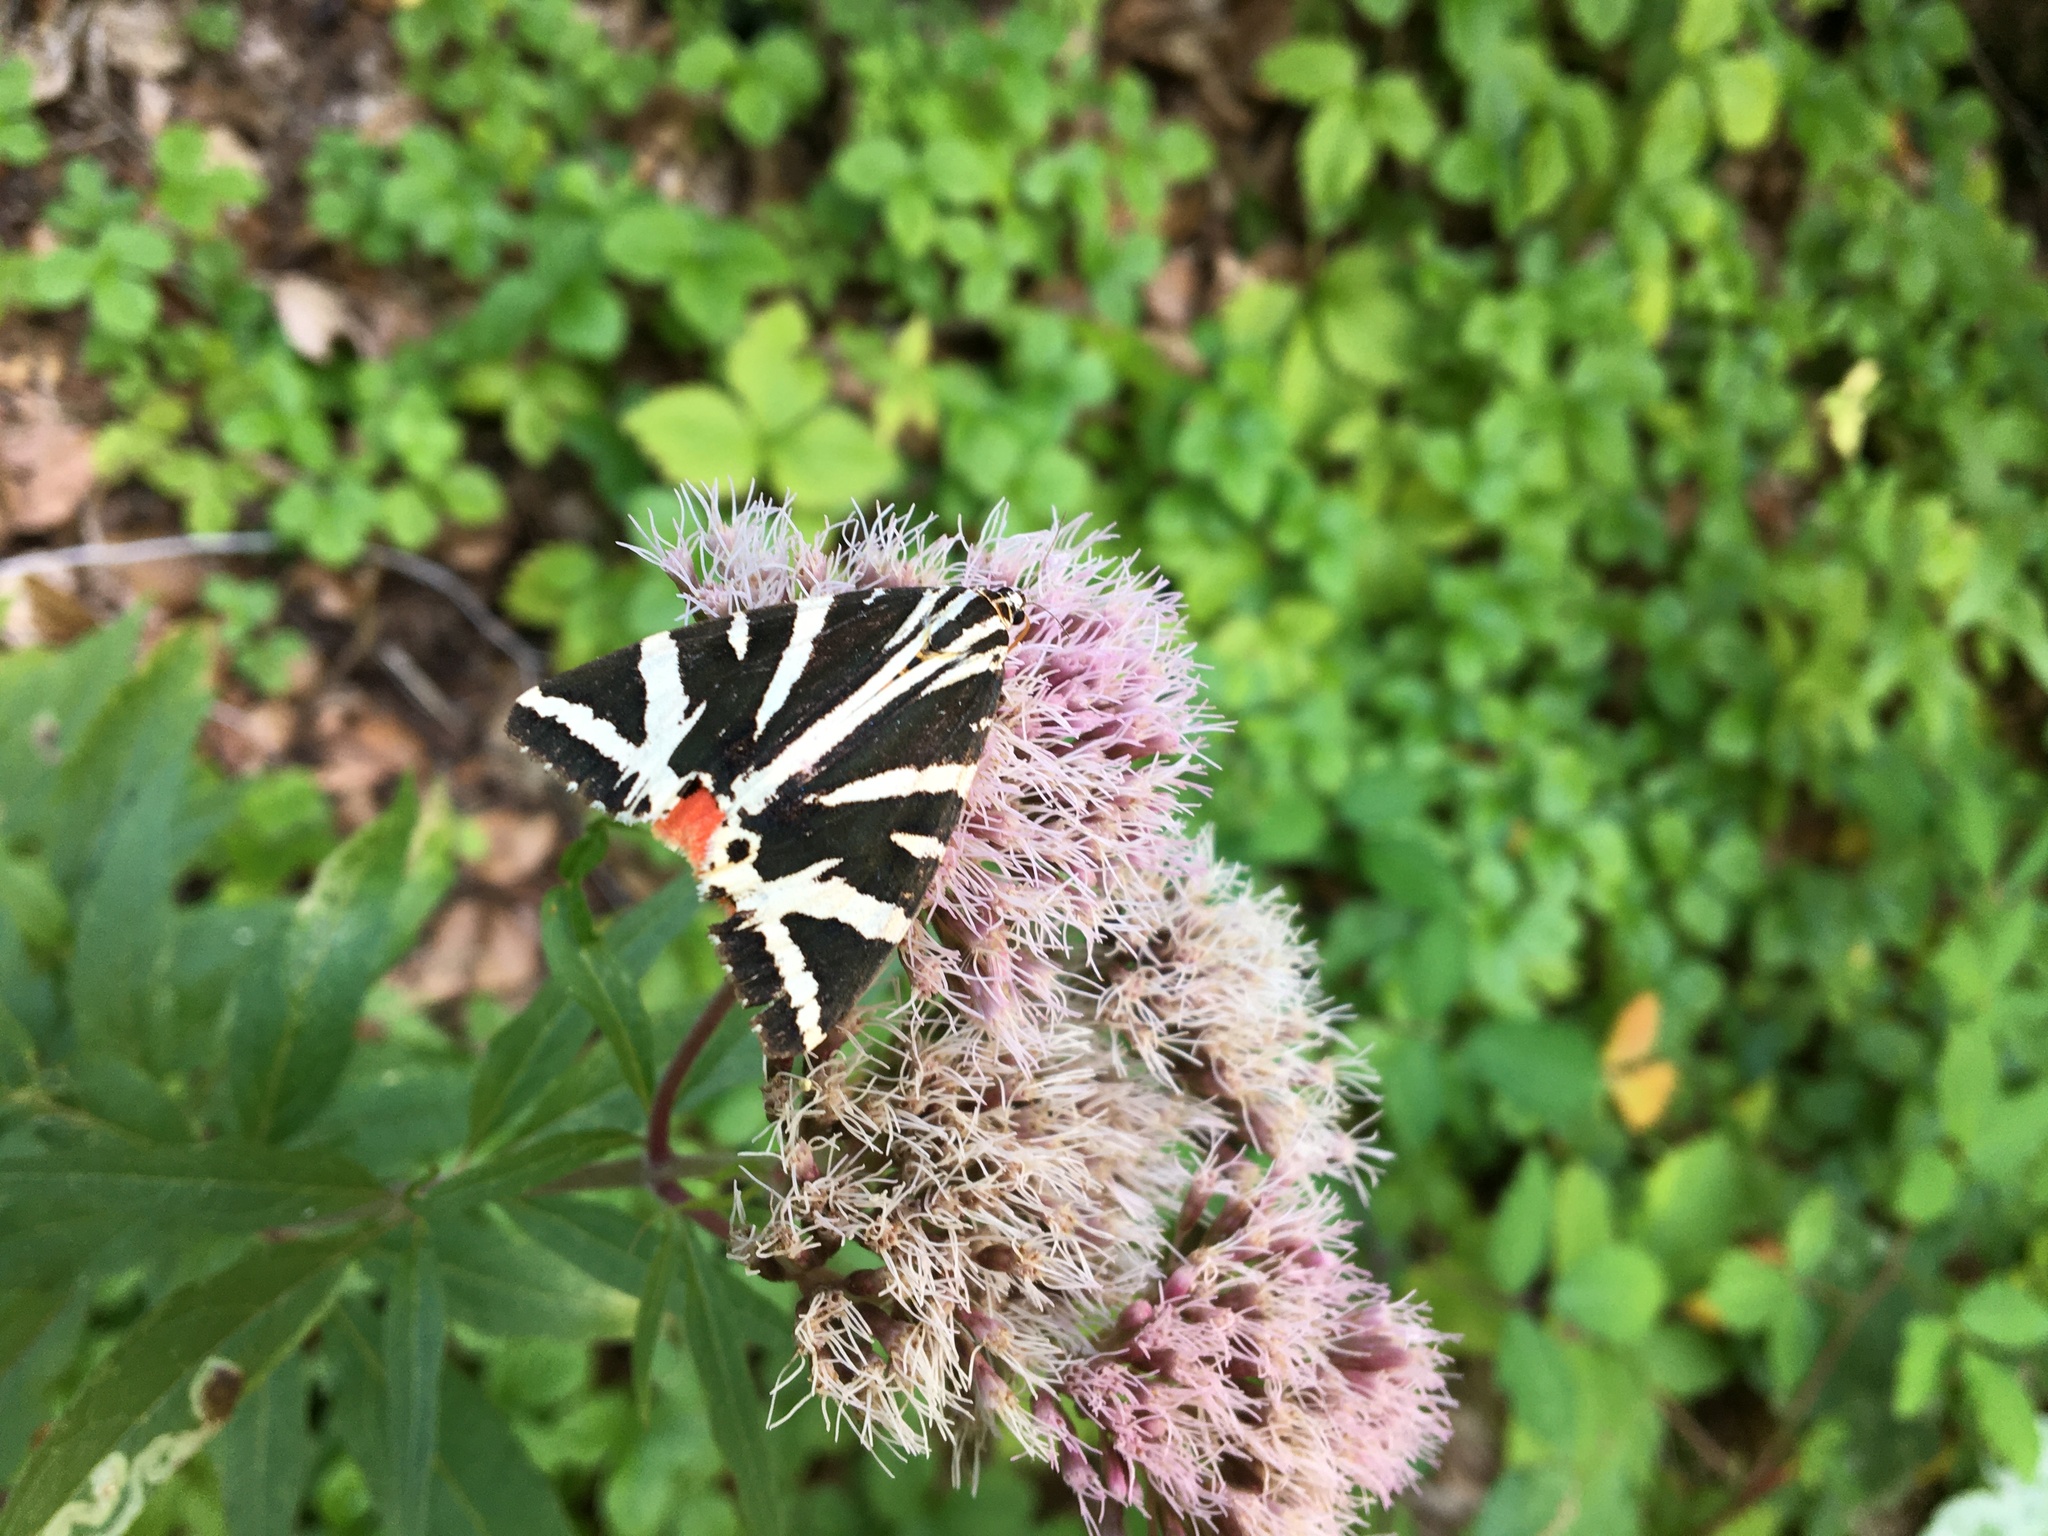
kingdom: Animalia
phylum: Arthropoda
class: Insecta
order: Lepidoptera
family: Erebidae
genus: Euplagia
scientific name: Euplagia quadripunctaria
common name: Jersey tiger
